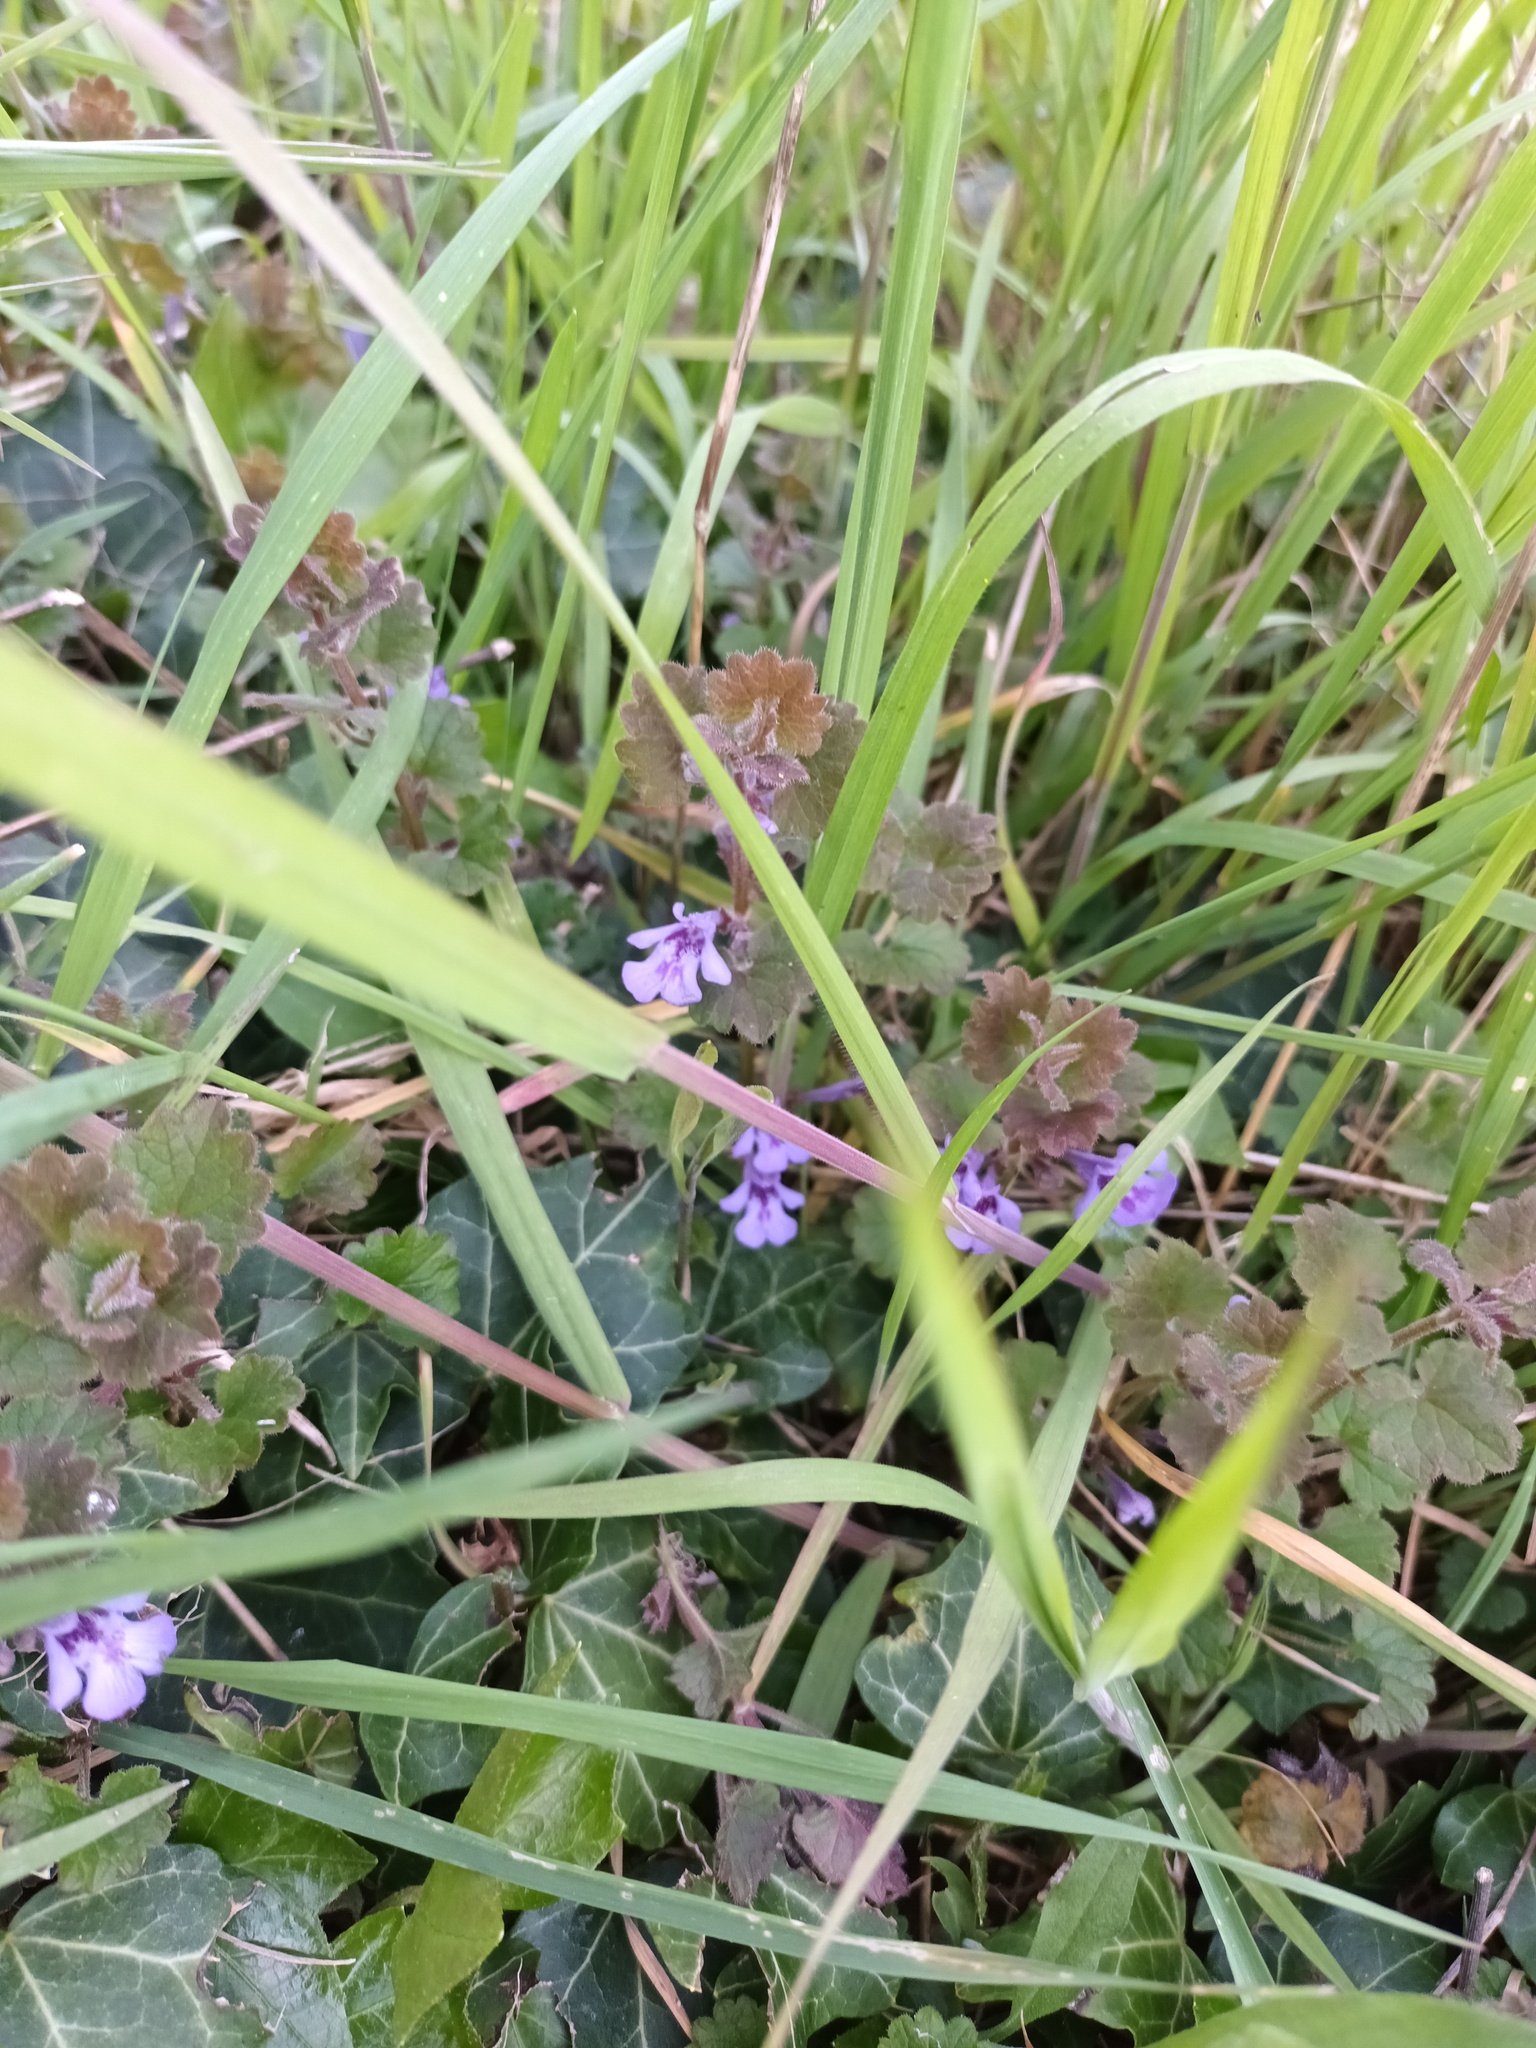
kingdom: Plantae
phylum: Tracheophyta
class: Magnoliopsida
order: Lamiales
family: Lamiaceae
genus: Glechoma
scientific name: Glechoma hederacea
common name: Ground ivy
